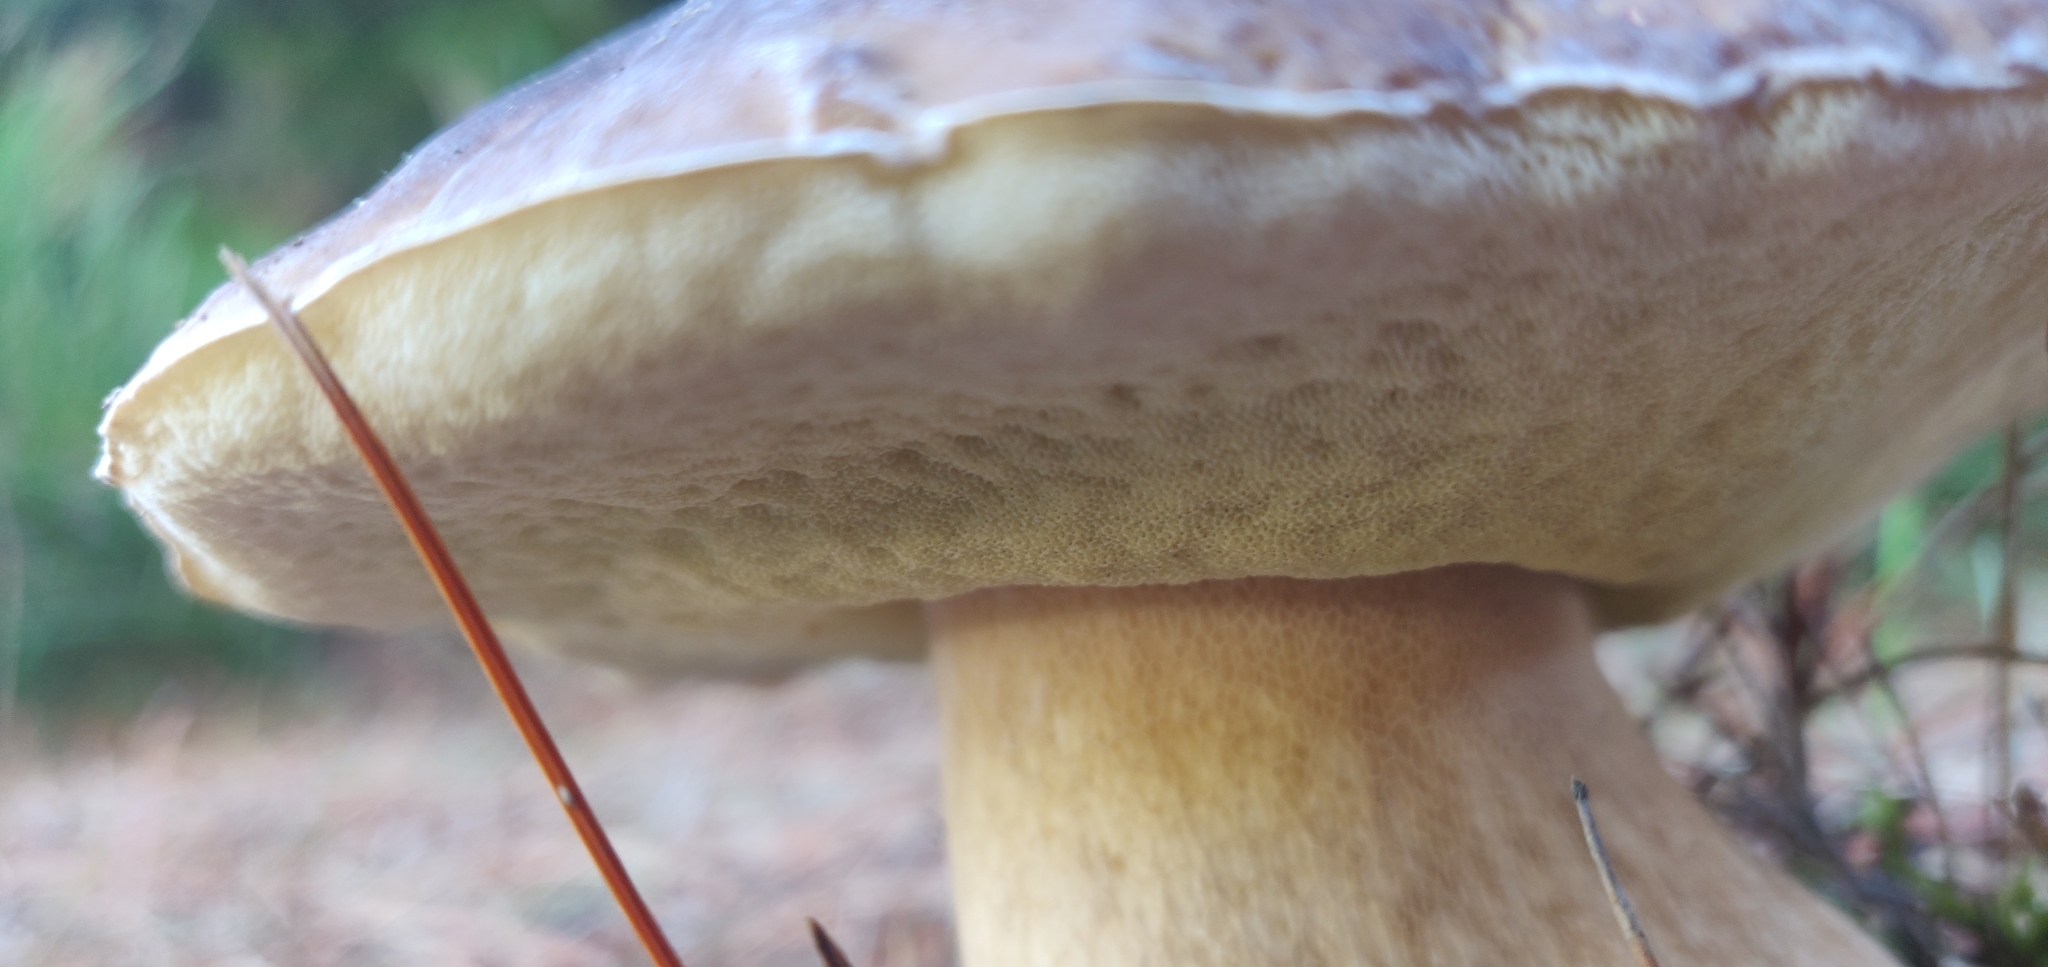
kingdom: Fungi
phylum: Basidiomycota
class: Agaricomycetes
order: Boletales
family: Boletaceae
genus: Boletus
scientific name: Boletus edulis
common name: Cep
